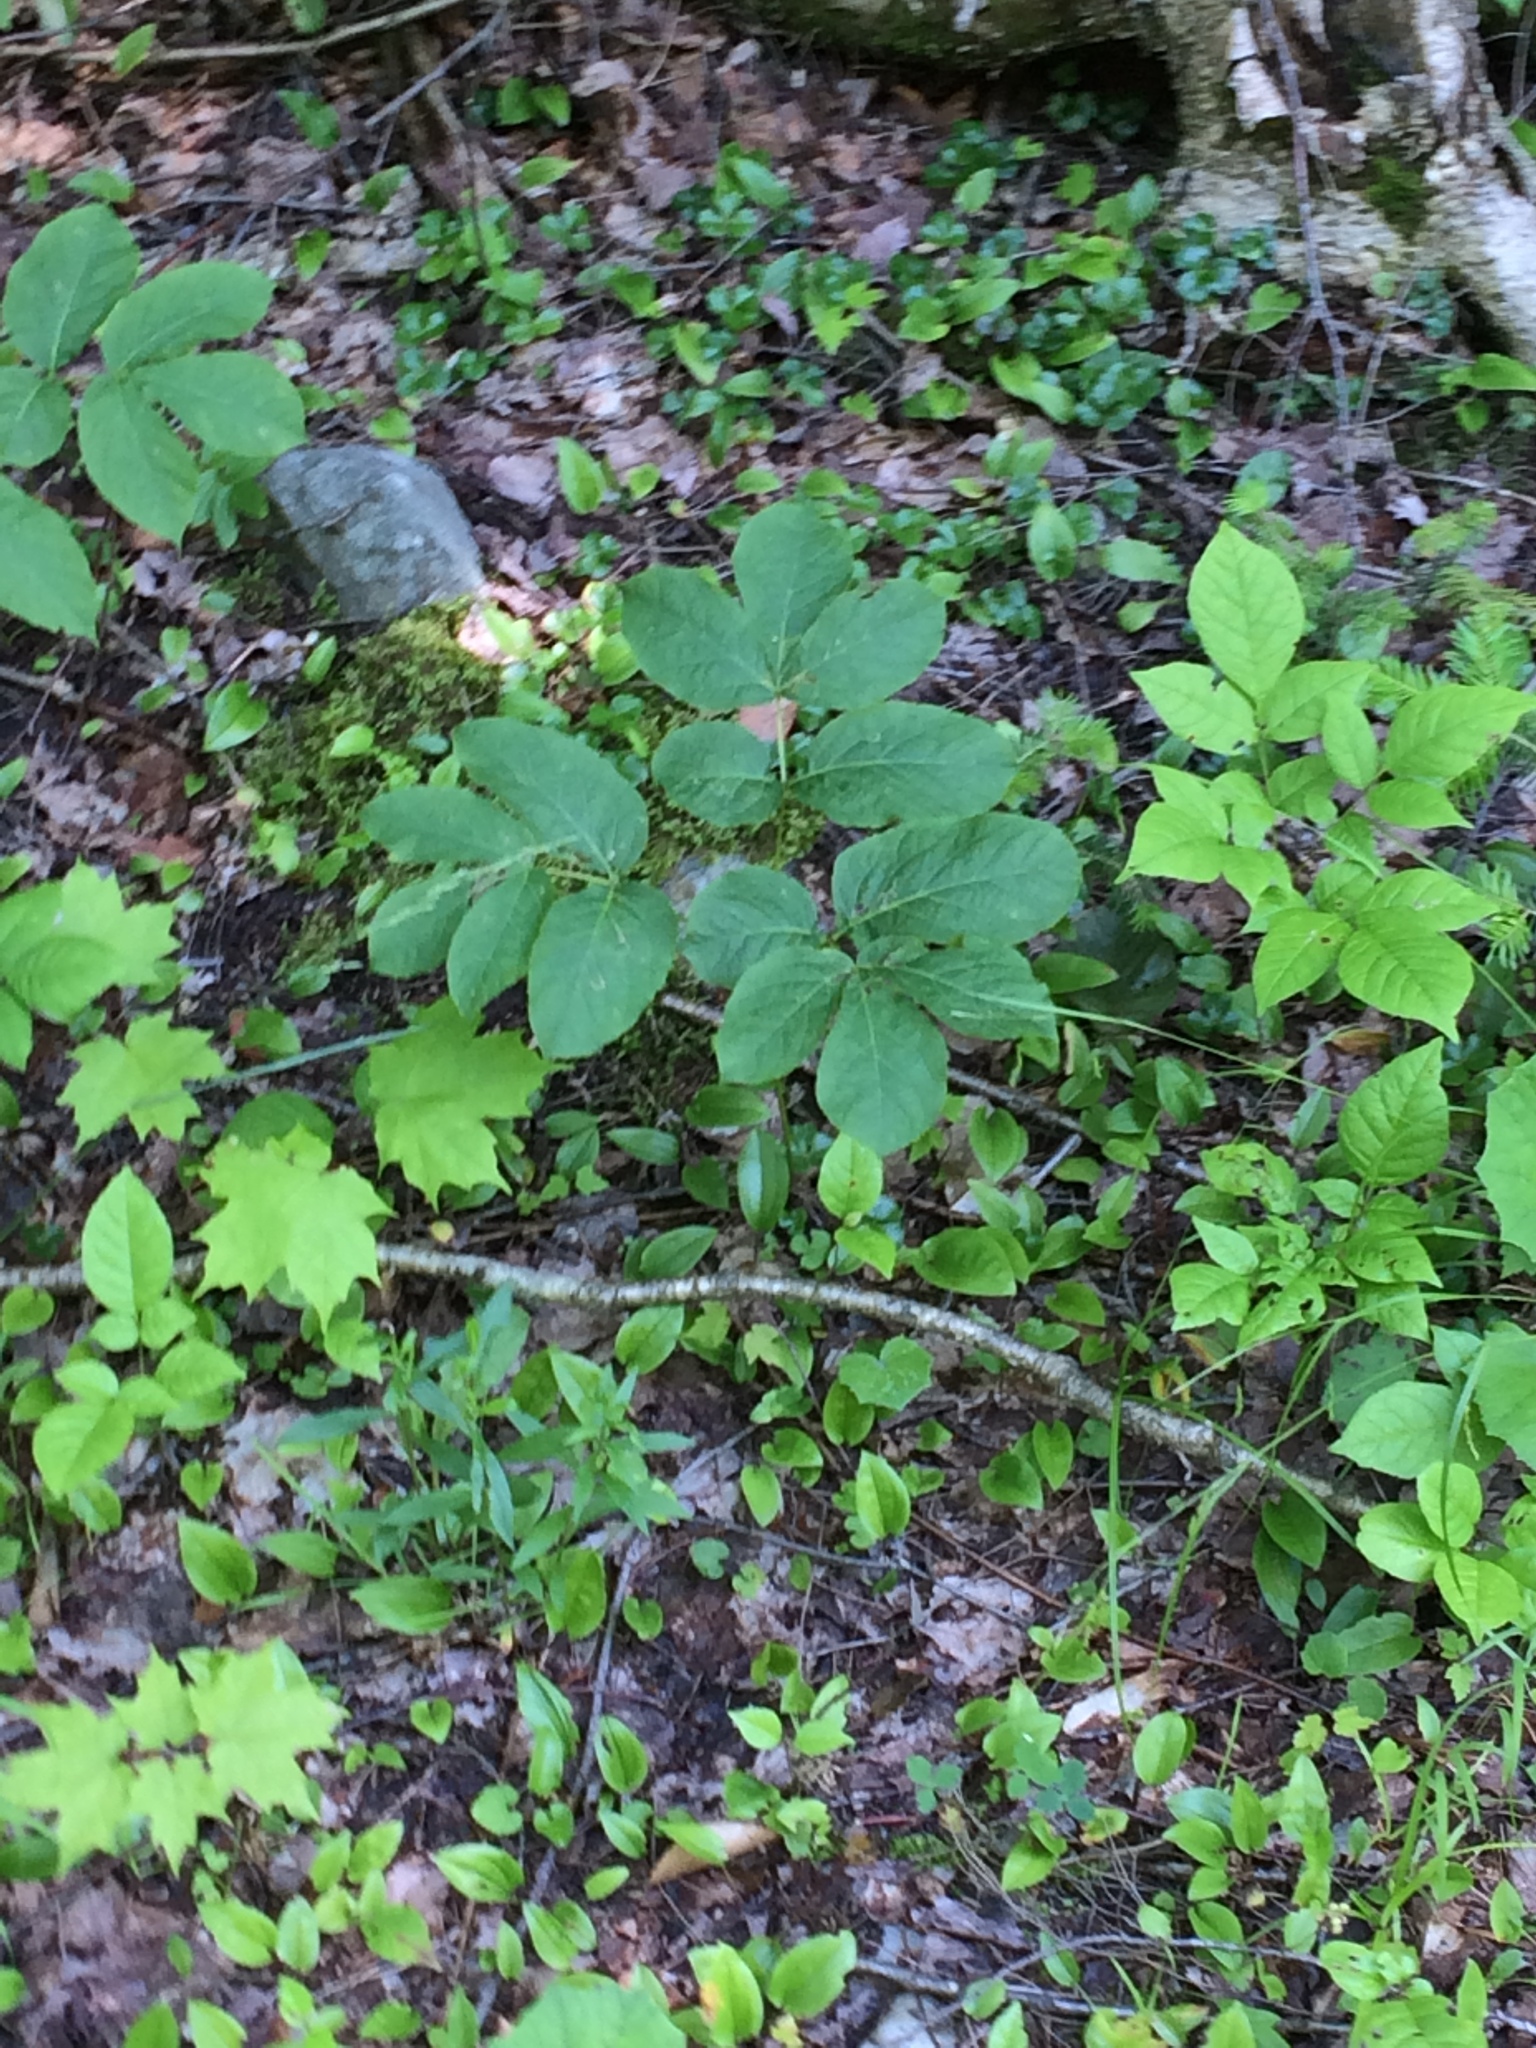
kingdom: Plantae
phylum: Tracheophyta
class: Magnoliopsida
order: Apiales
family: Araliaceae
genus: Aralia
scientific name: Aralia nudicaulis
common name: Wild sarsaparilla
